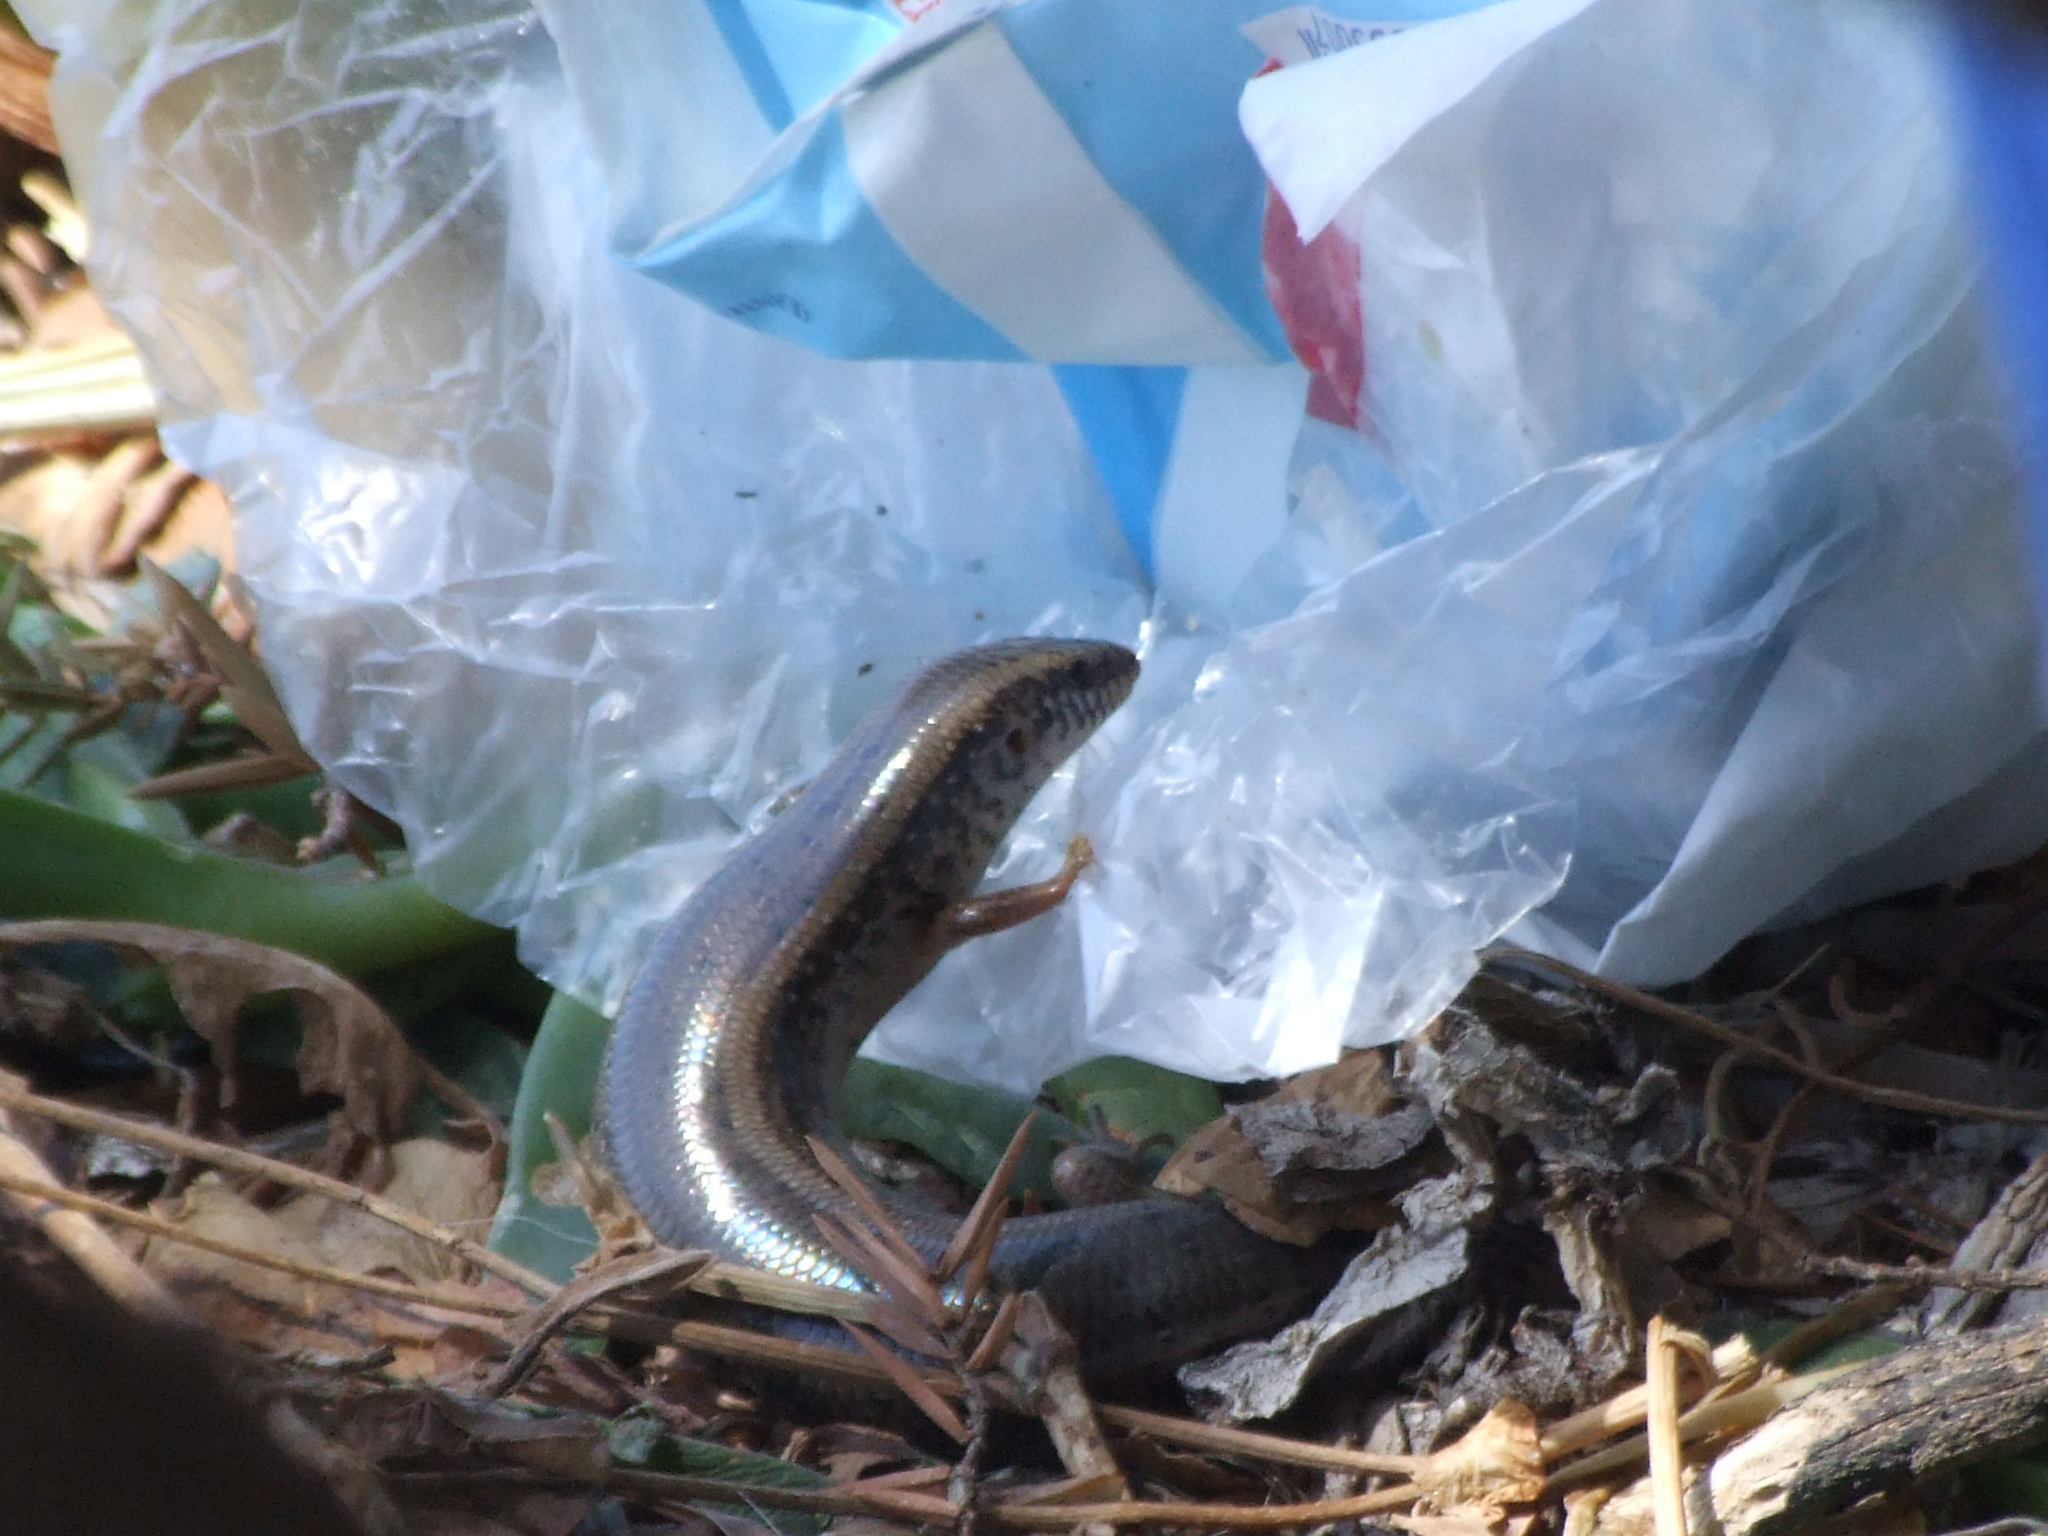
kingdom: Animalia
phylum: Chordata
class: Squamata
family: Scincidae
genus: Chalcides
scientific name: Chalcides ocellatus
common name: Ocellated skink
